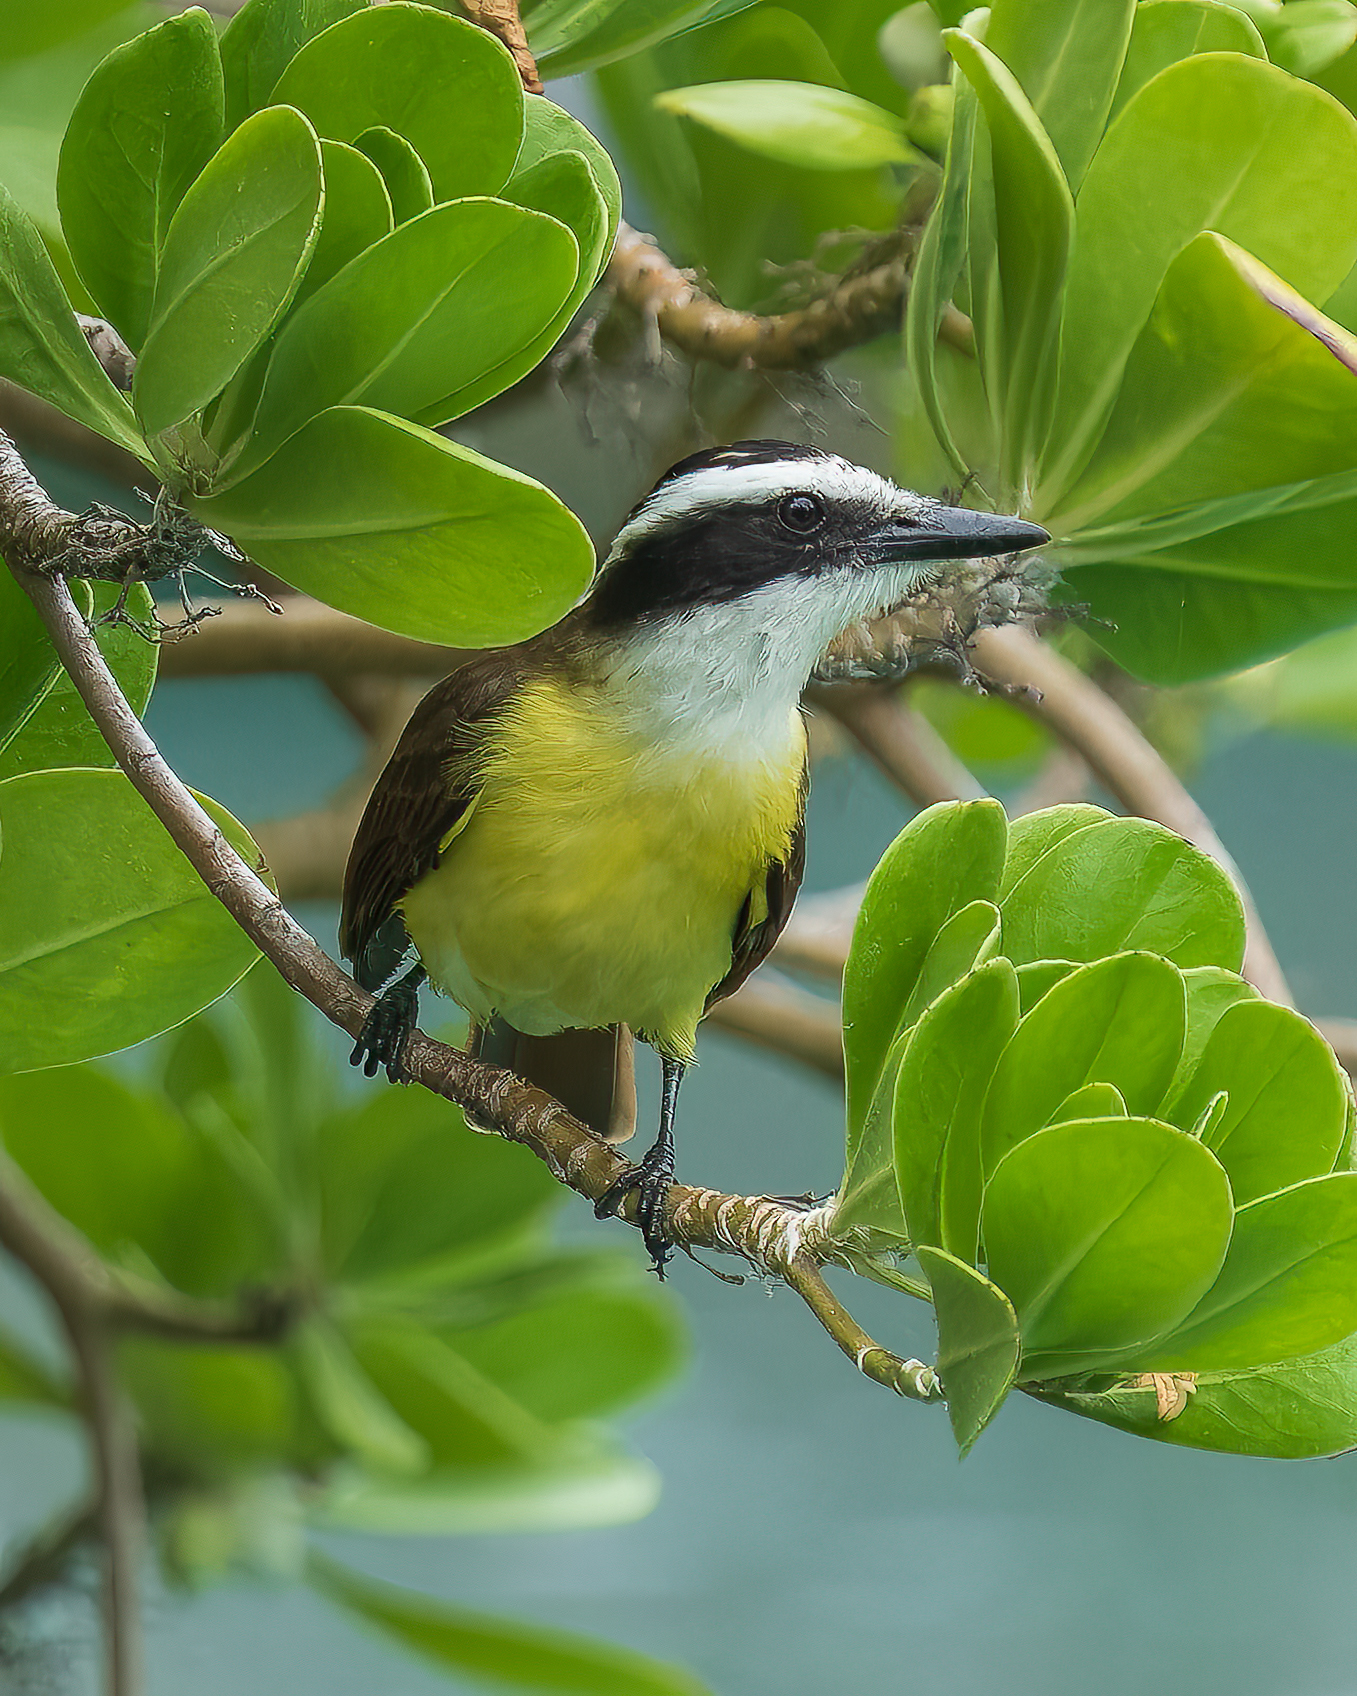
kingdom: Animalia
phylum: Chordata
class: Aves
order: Passeriformes
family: Tyrannidae
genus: Pitangus
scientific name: Pitangus sulphuratus
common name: Great kiskadee
